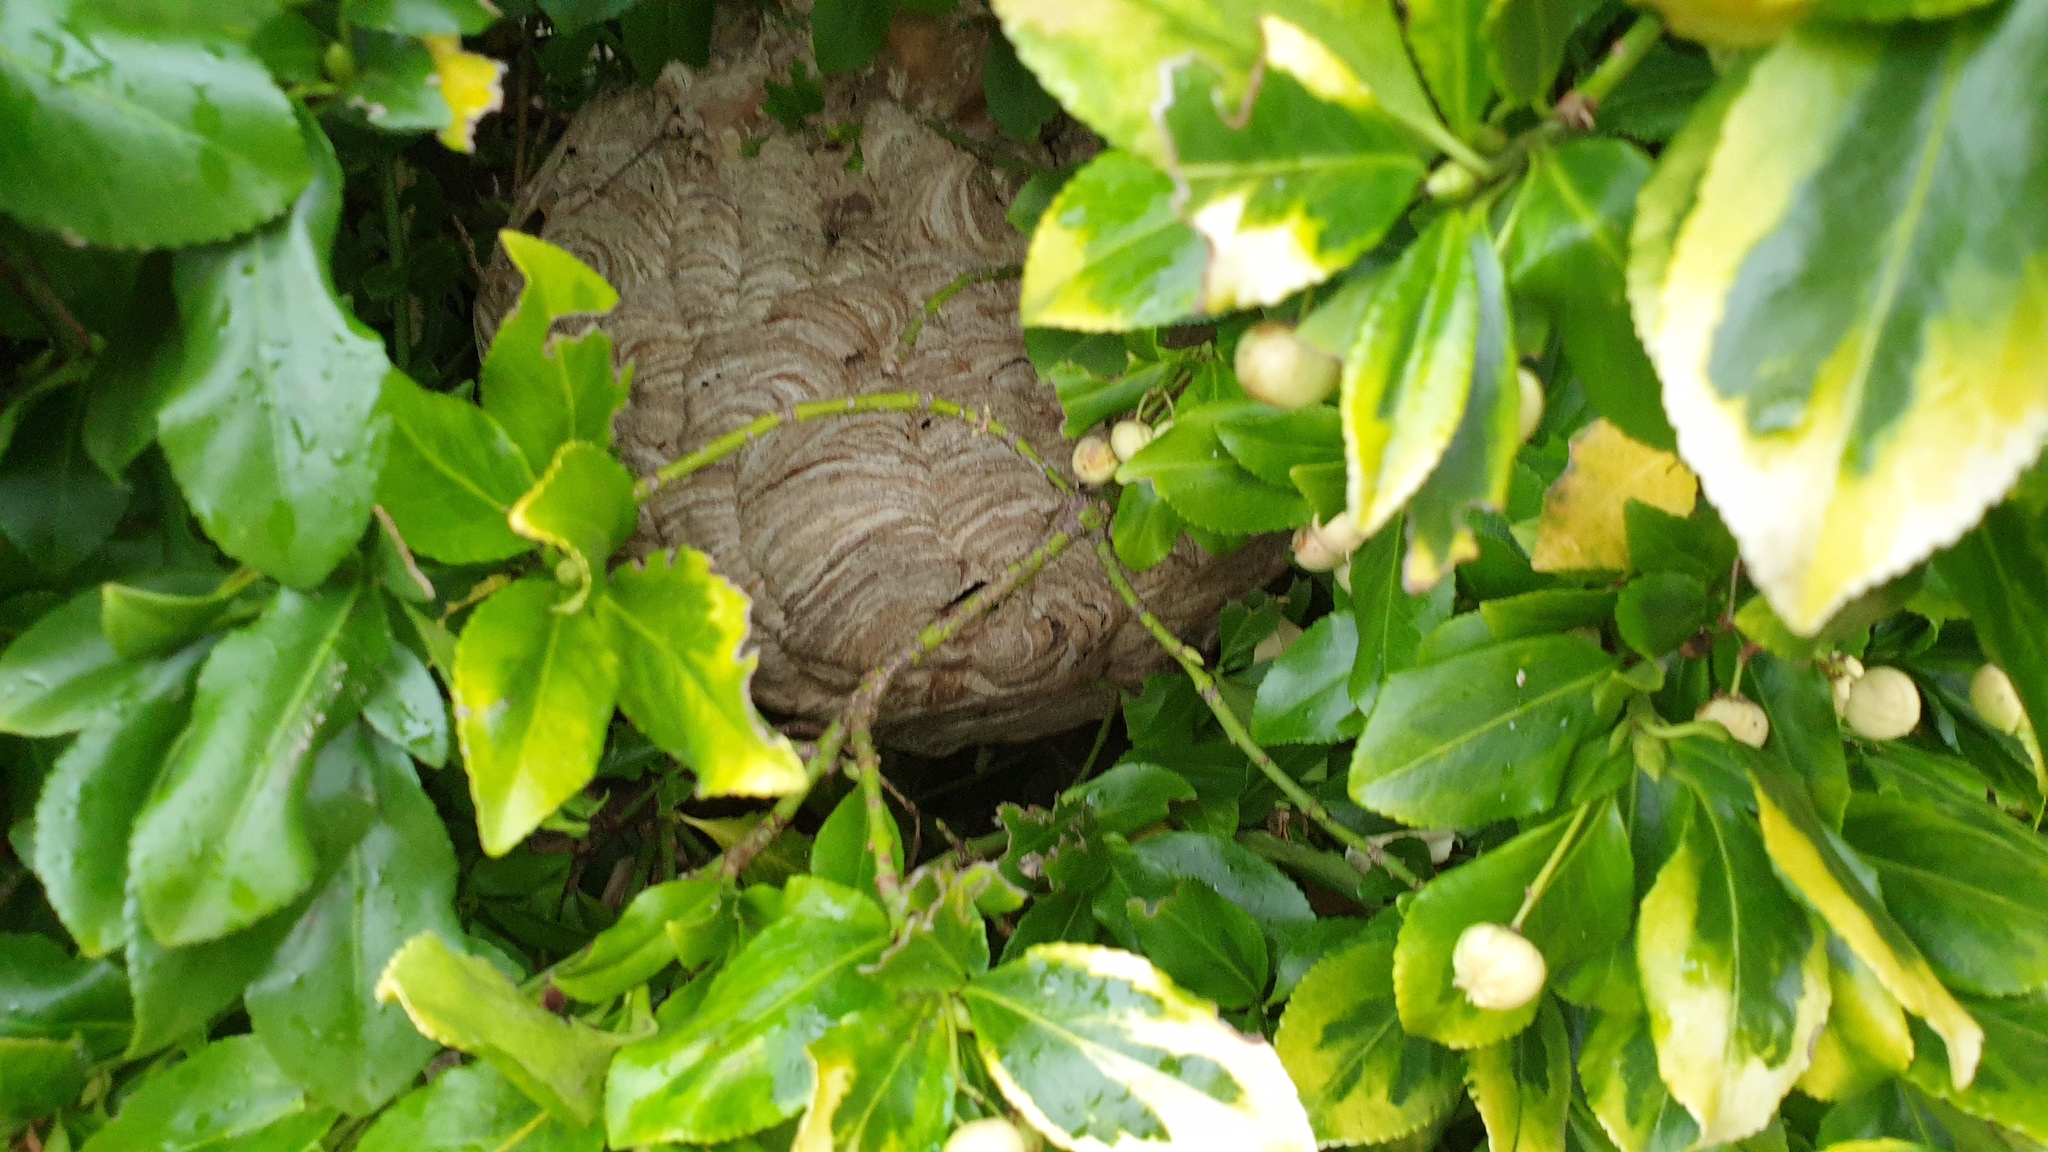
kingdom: Animalia
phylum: Arthropoda
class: Insecta
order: Hymenoptera
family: Vespidae
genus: Vespa
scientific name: Vespa velutina
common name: Asian hornet
